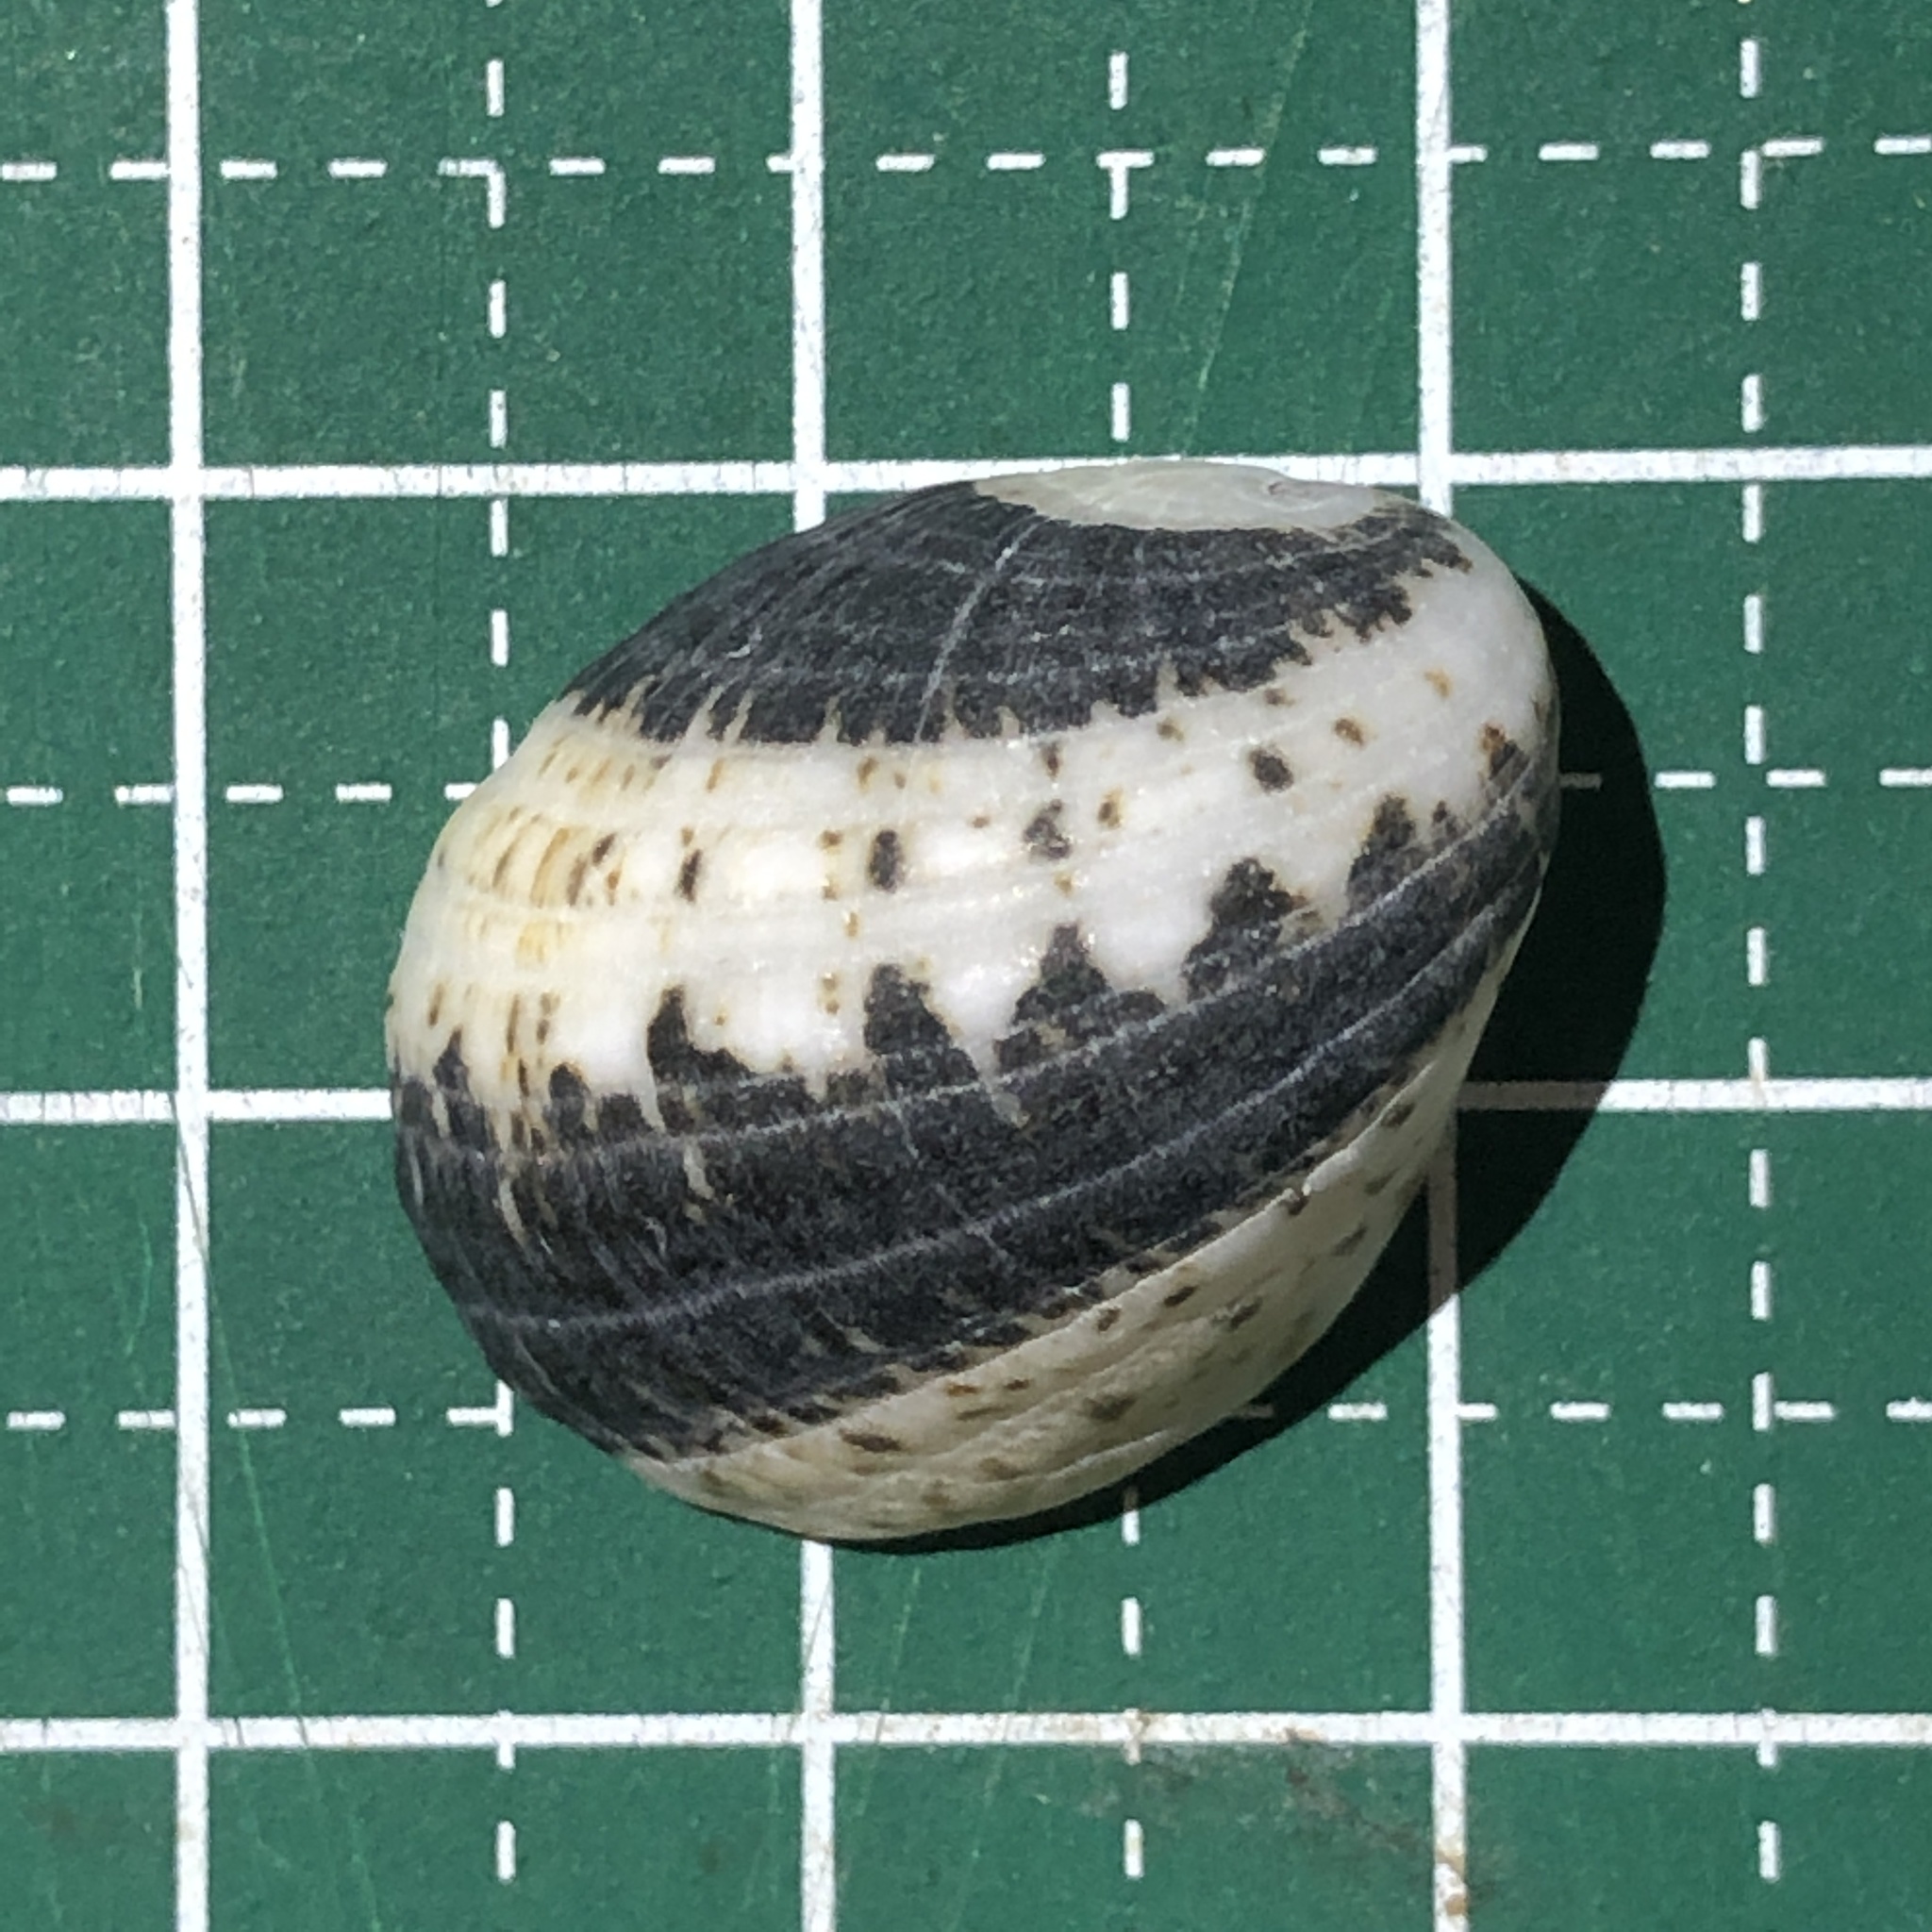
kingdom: Animalia
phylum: Mollusca
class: Gastropoda
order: Cycloneritida
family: Neritidae
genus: Nerita
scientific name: Nerita albicilla
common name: Blotched nerite
